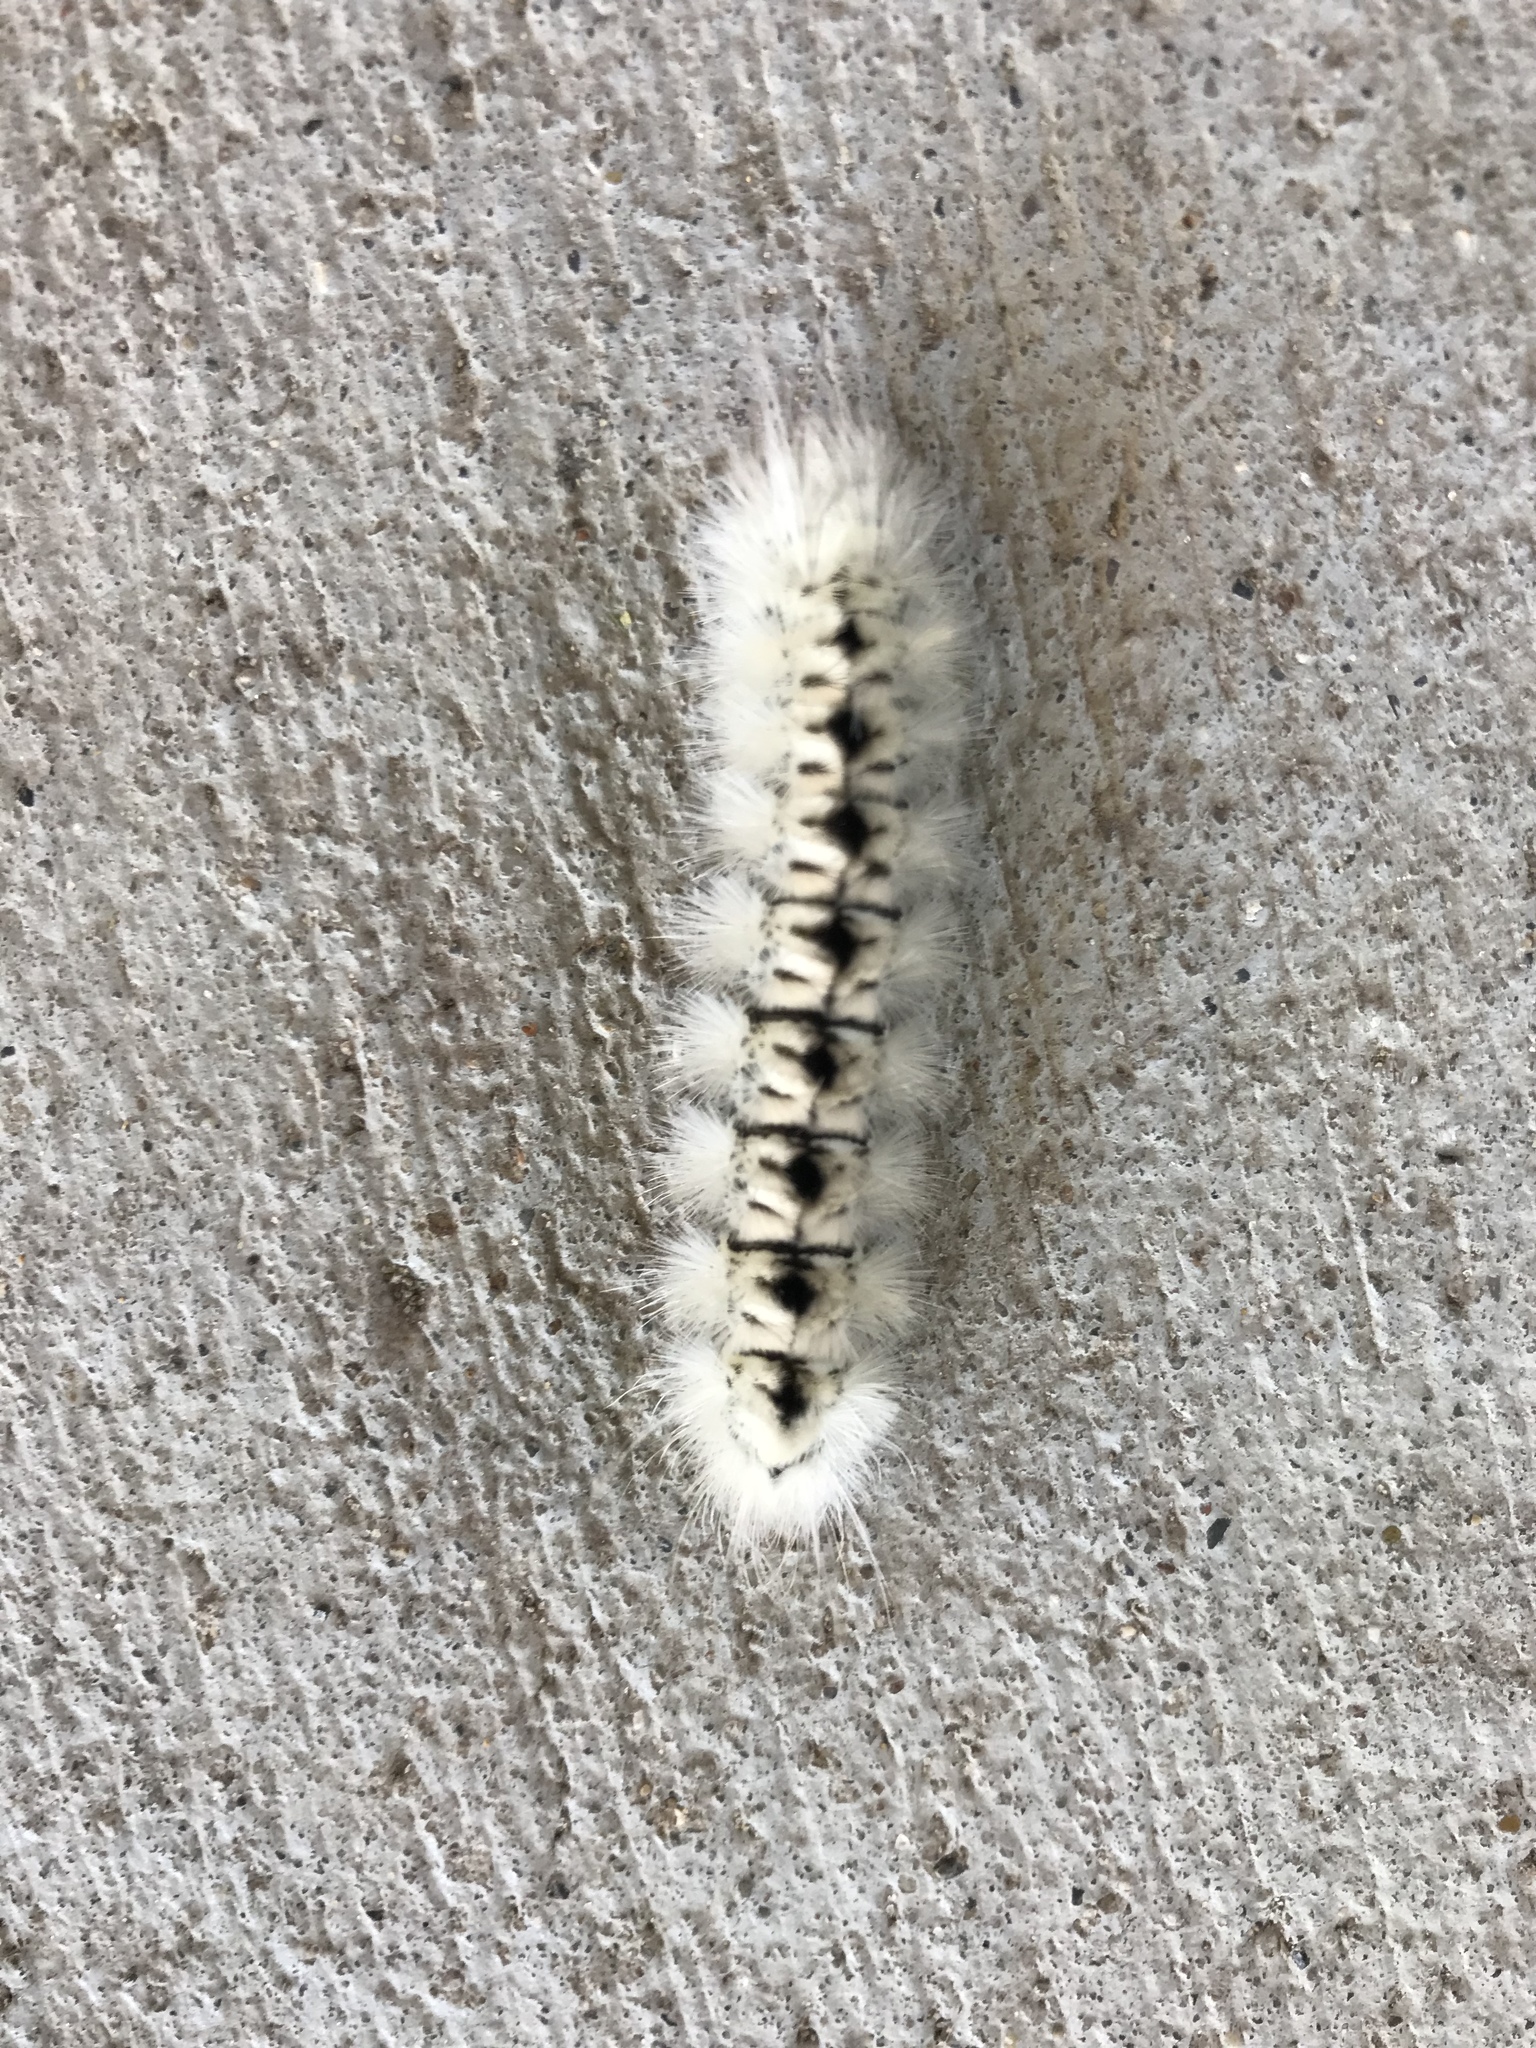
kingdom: Animalia
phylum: Arthropoda
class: Insecta
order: Lepidoptera
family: Erebidae
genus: Lophocampa
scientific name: Lophocampa caryae
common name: Hickory tussock moth
